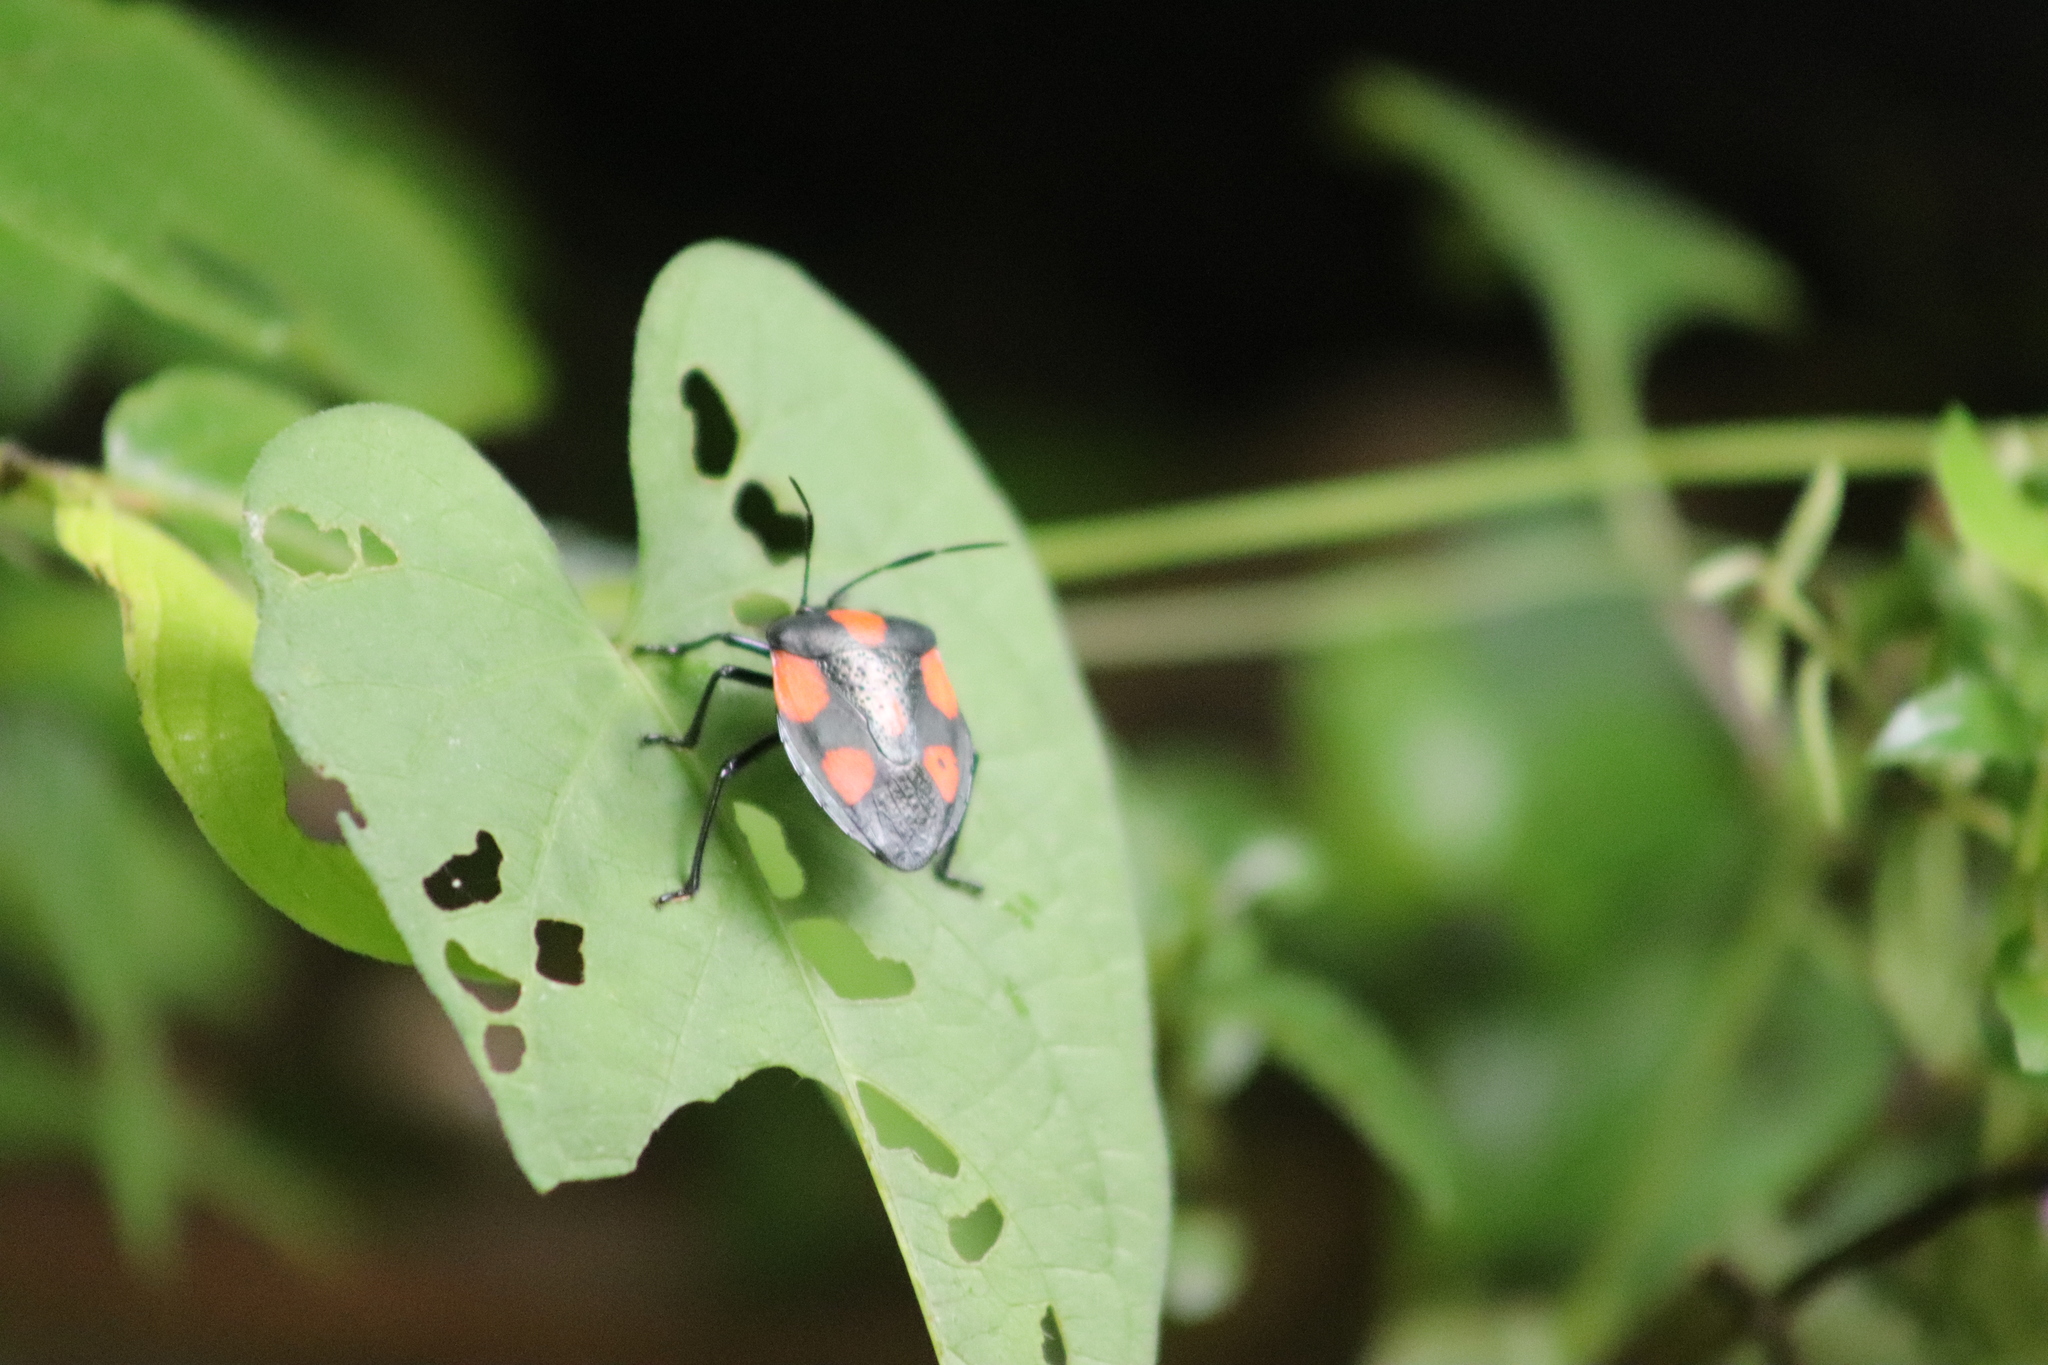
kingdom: Animalia
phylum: Arthropoda
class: Insecta
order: Hemiptera
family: Pentatomidae
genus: Brachystethus
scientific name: Brachystethus rubromaculatus
